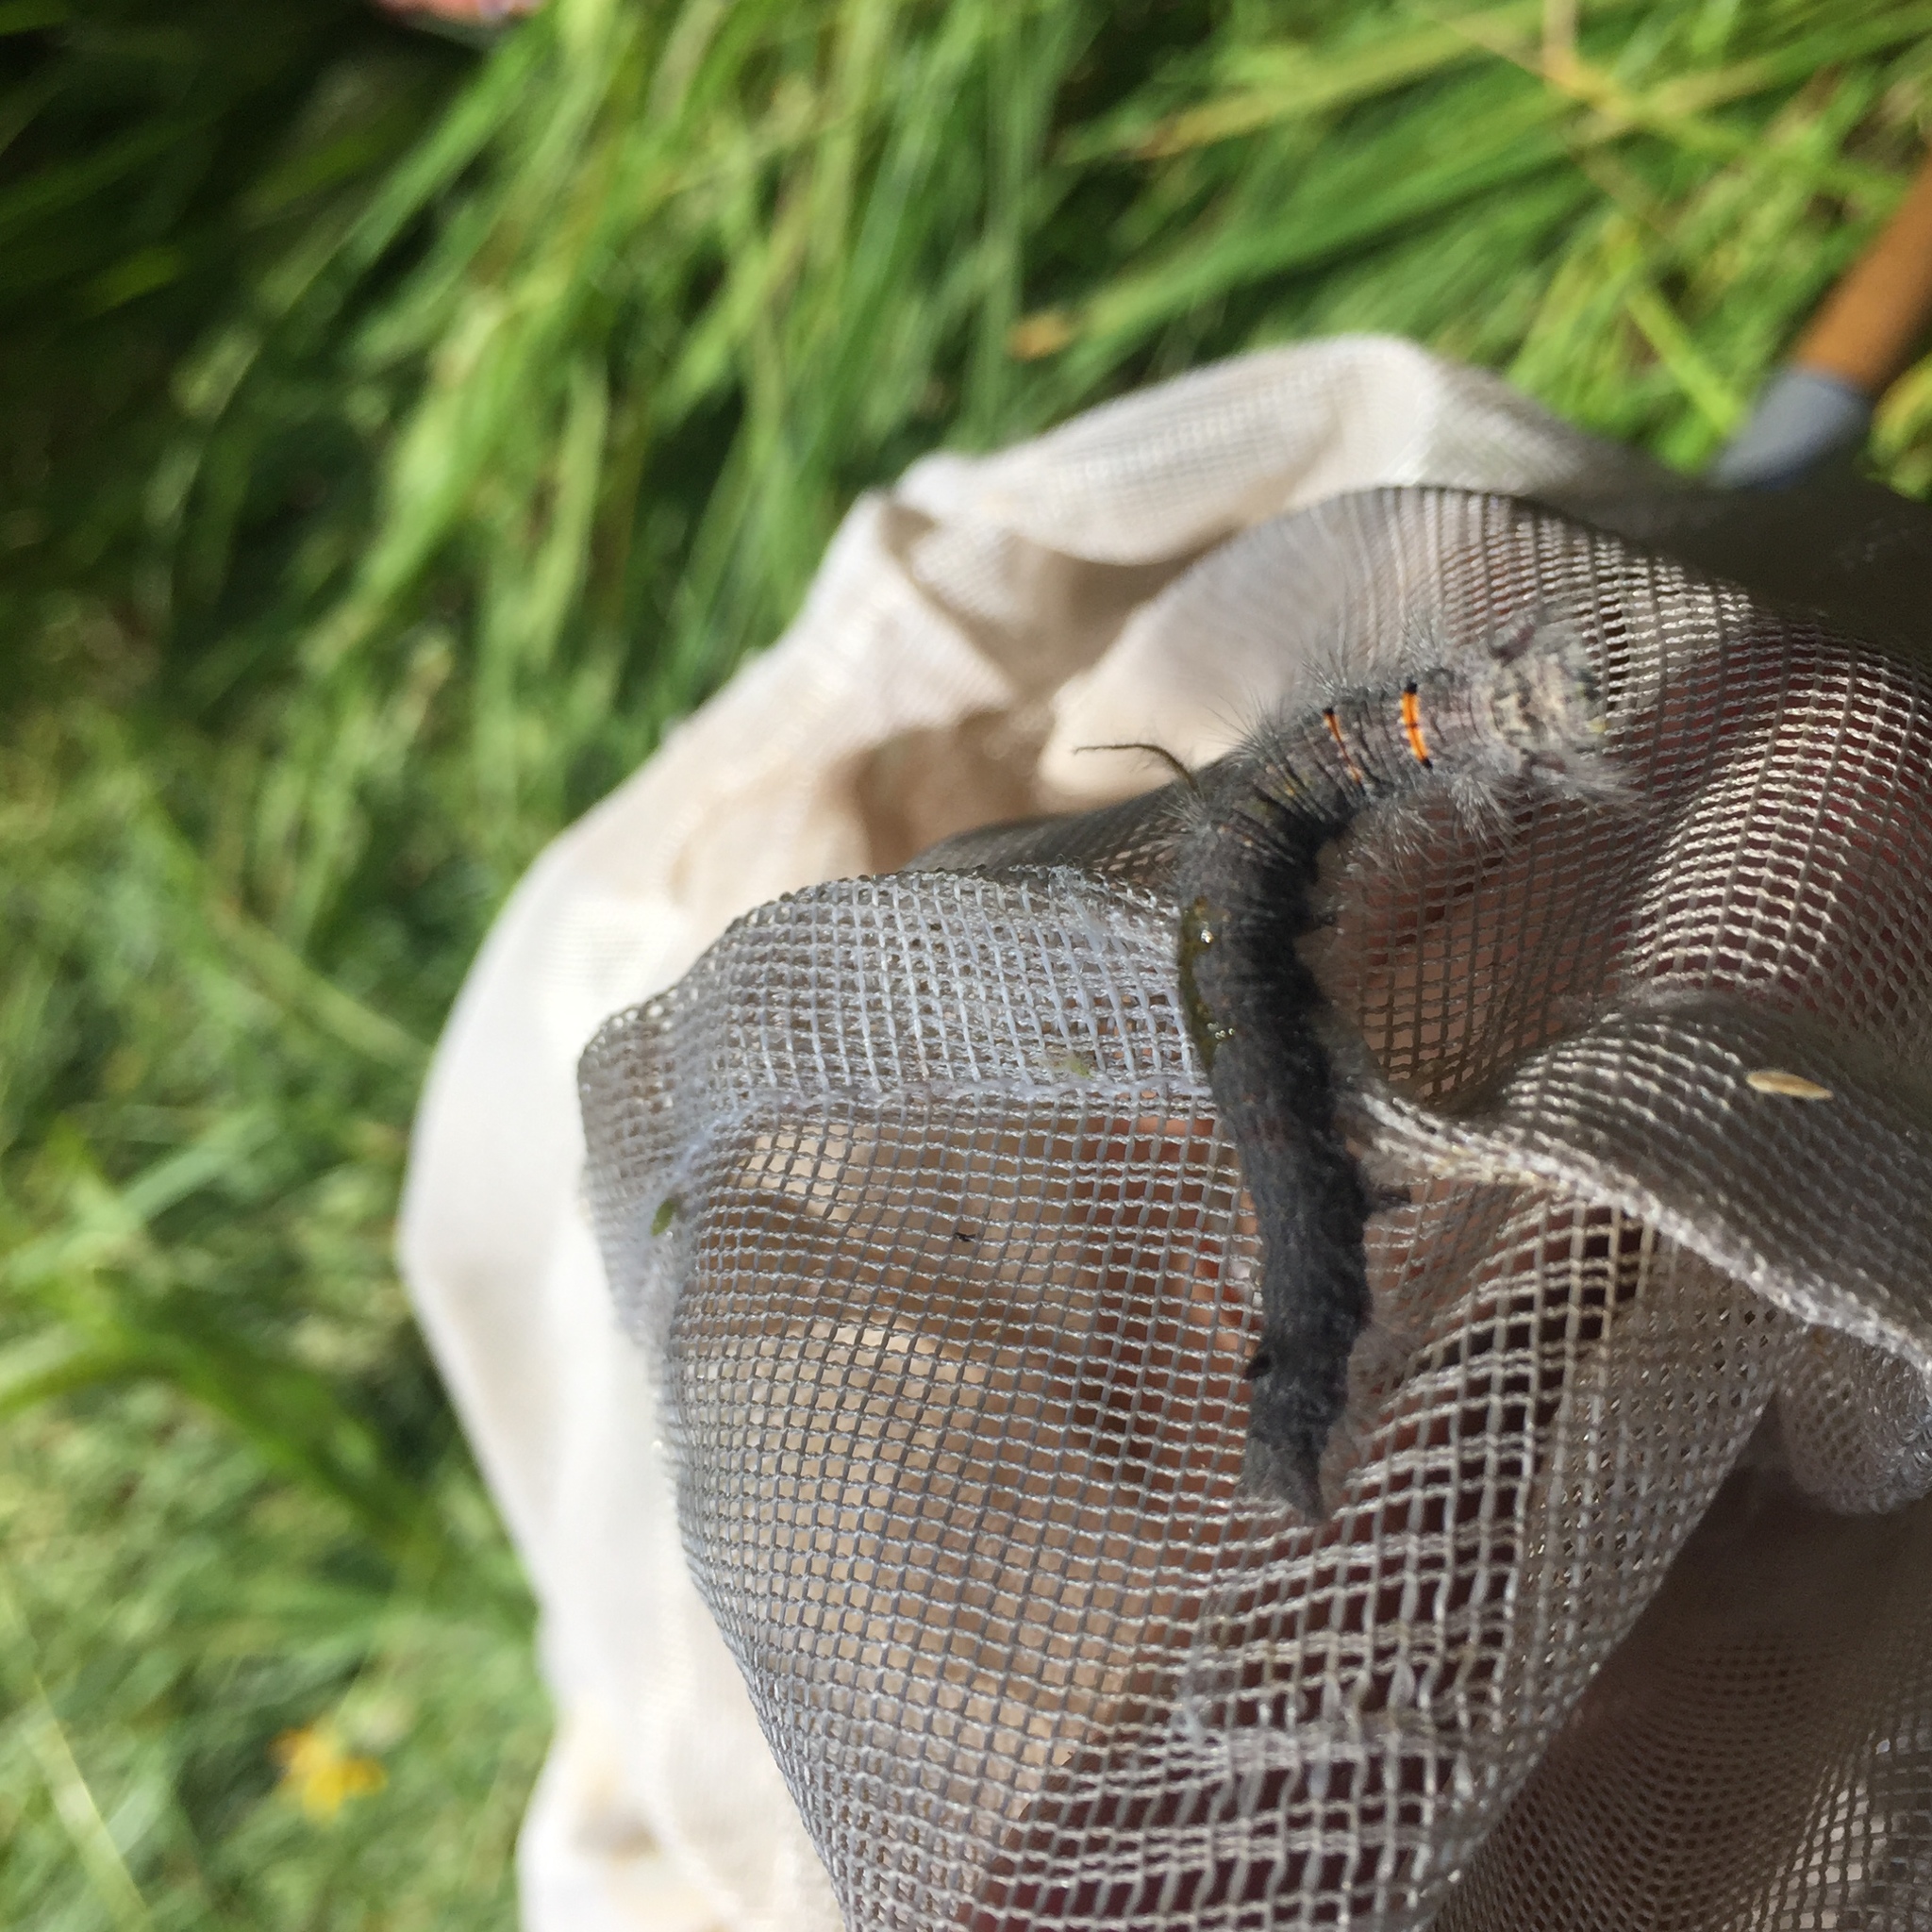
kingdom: Animalia
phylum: Arthropoda
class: Insecta
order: Lepidoptera
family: Lasiocampidae
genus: Phyllodesma
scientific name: Phyllodesma americana
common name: American lappet moth
